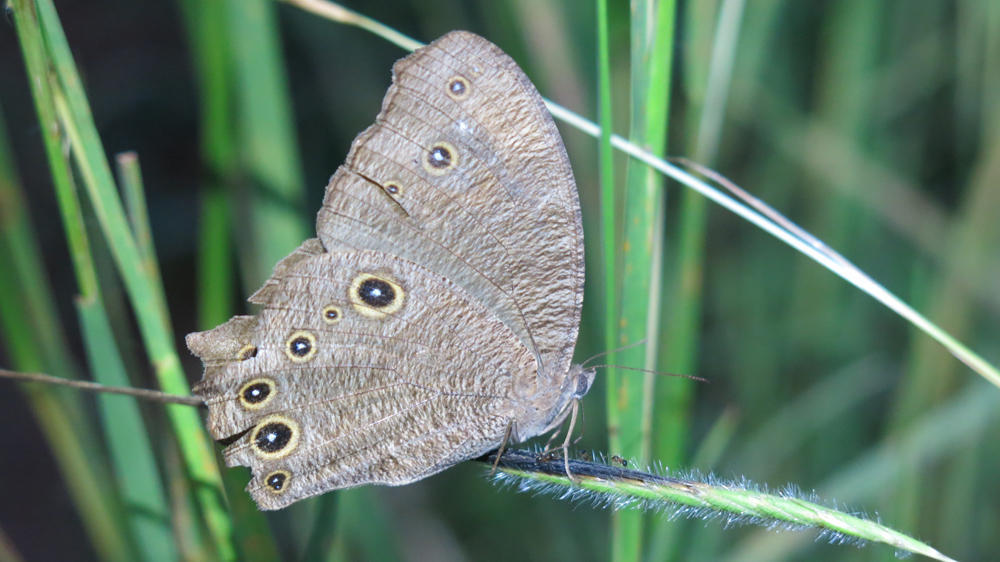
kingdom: Animalia
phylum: Arthropoda
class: Insecta
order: Lepidoptera
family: Nymphalidae
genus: Melanitis
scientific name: Melanitis leda
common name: Twilight brown
